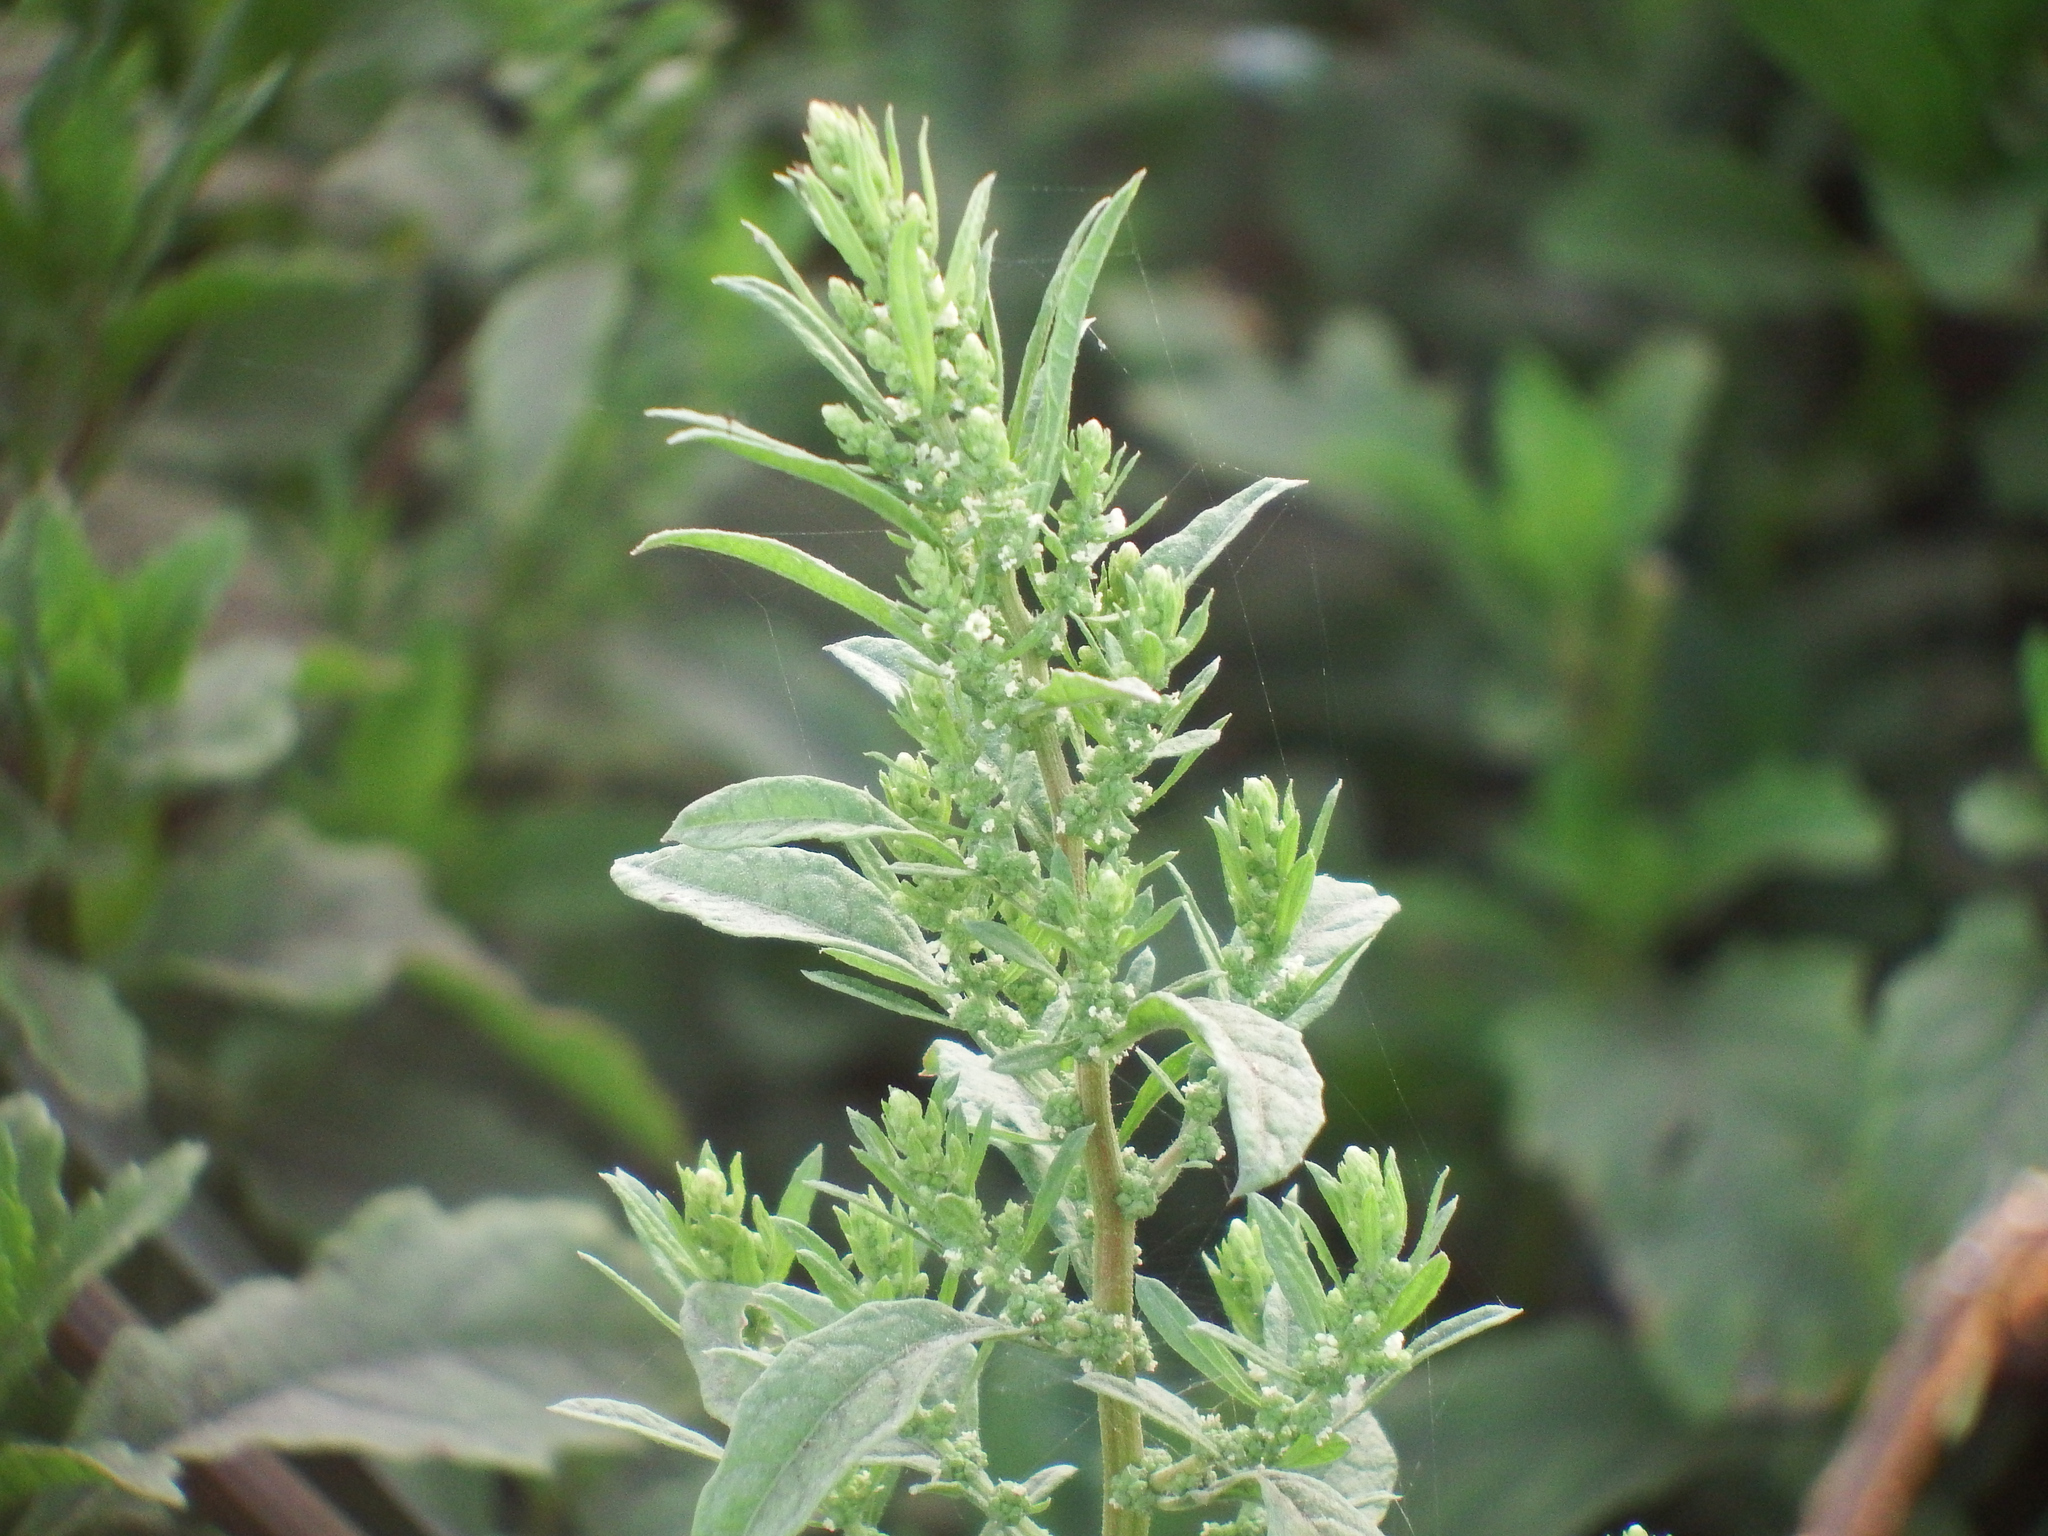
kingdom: Plantae
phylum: Tracheophyta
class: Magnoliopsida
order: Caryophyllales
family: Amaranthaceae
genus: Dysphania
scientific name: Dysphania ambrosioides
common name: Wormseed
